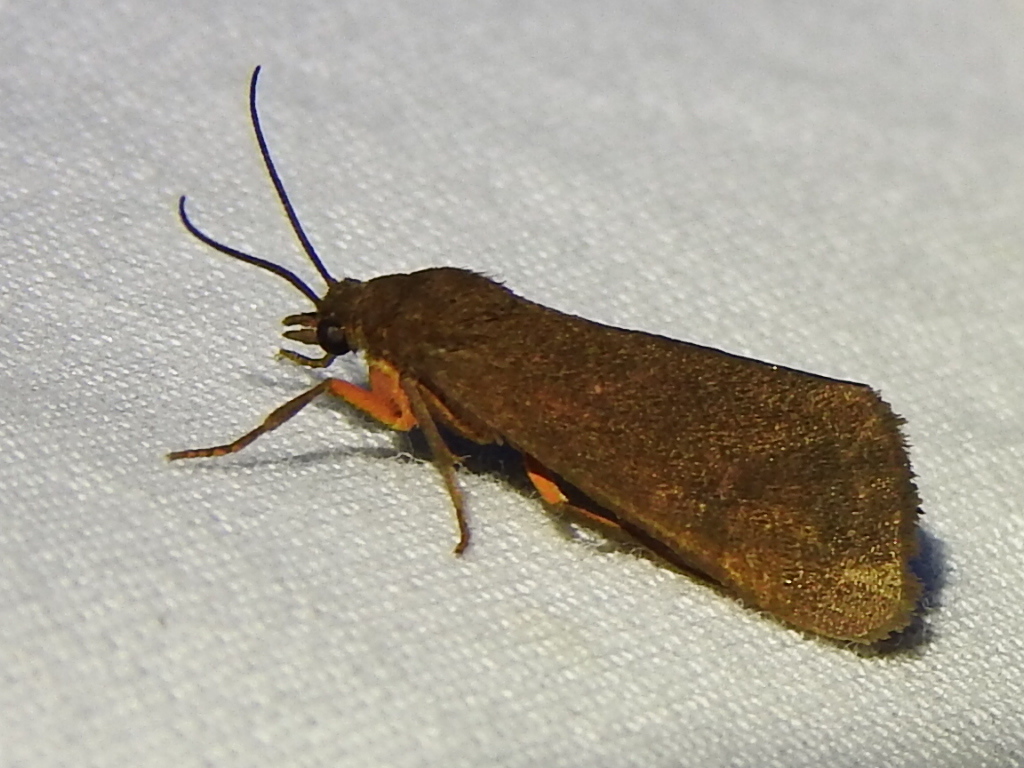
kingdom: Animalia
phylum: Arthropoda
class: Insecta
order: Lepidoptera
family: Erebidae
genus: Virbia
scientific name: Virbia aurantiaca
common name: Orange virbia moth
